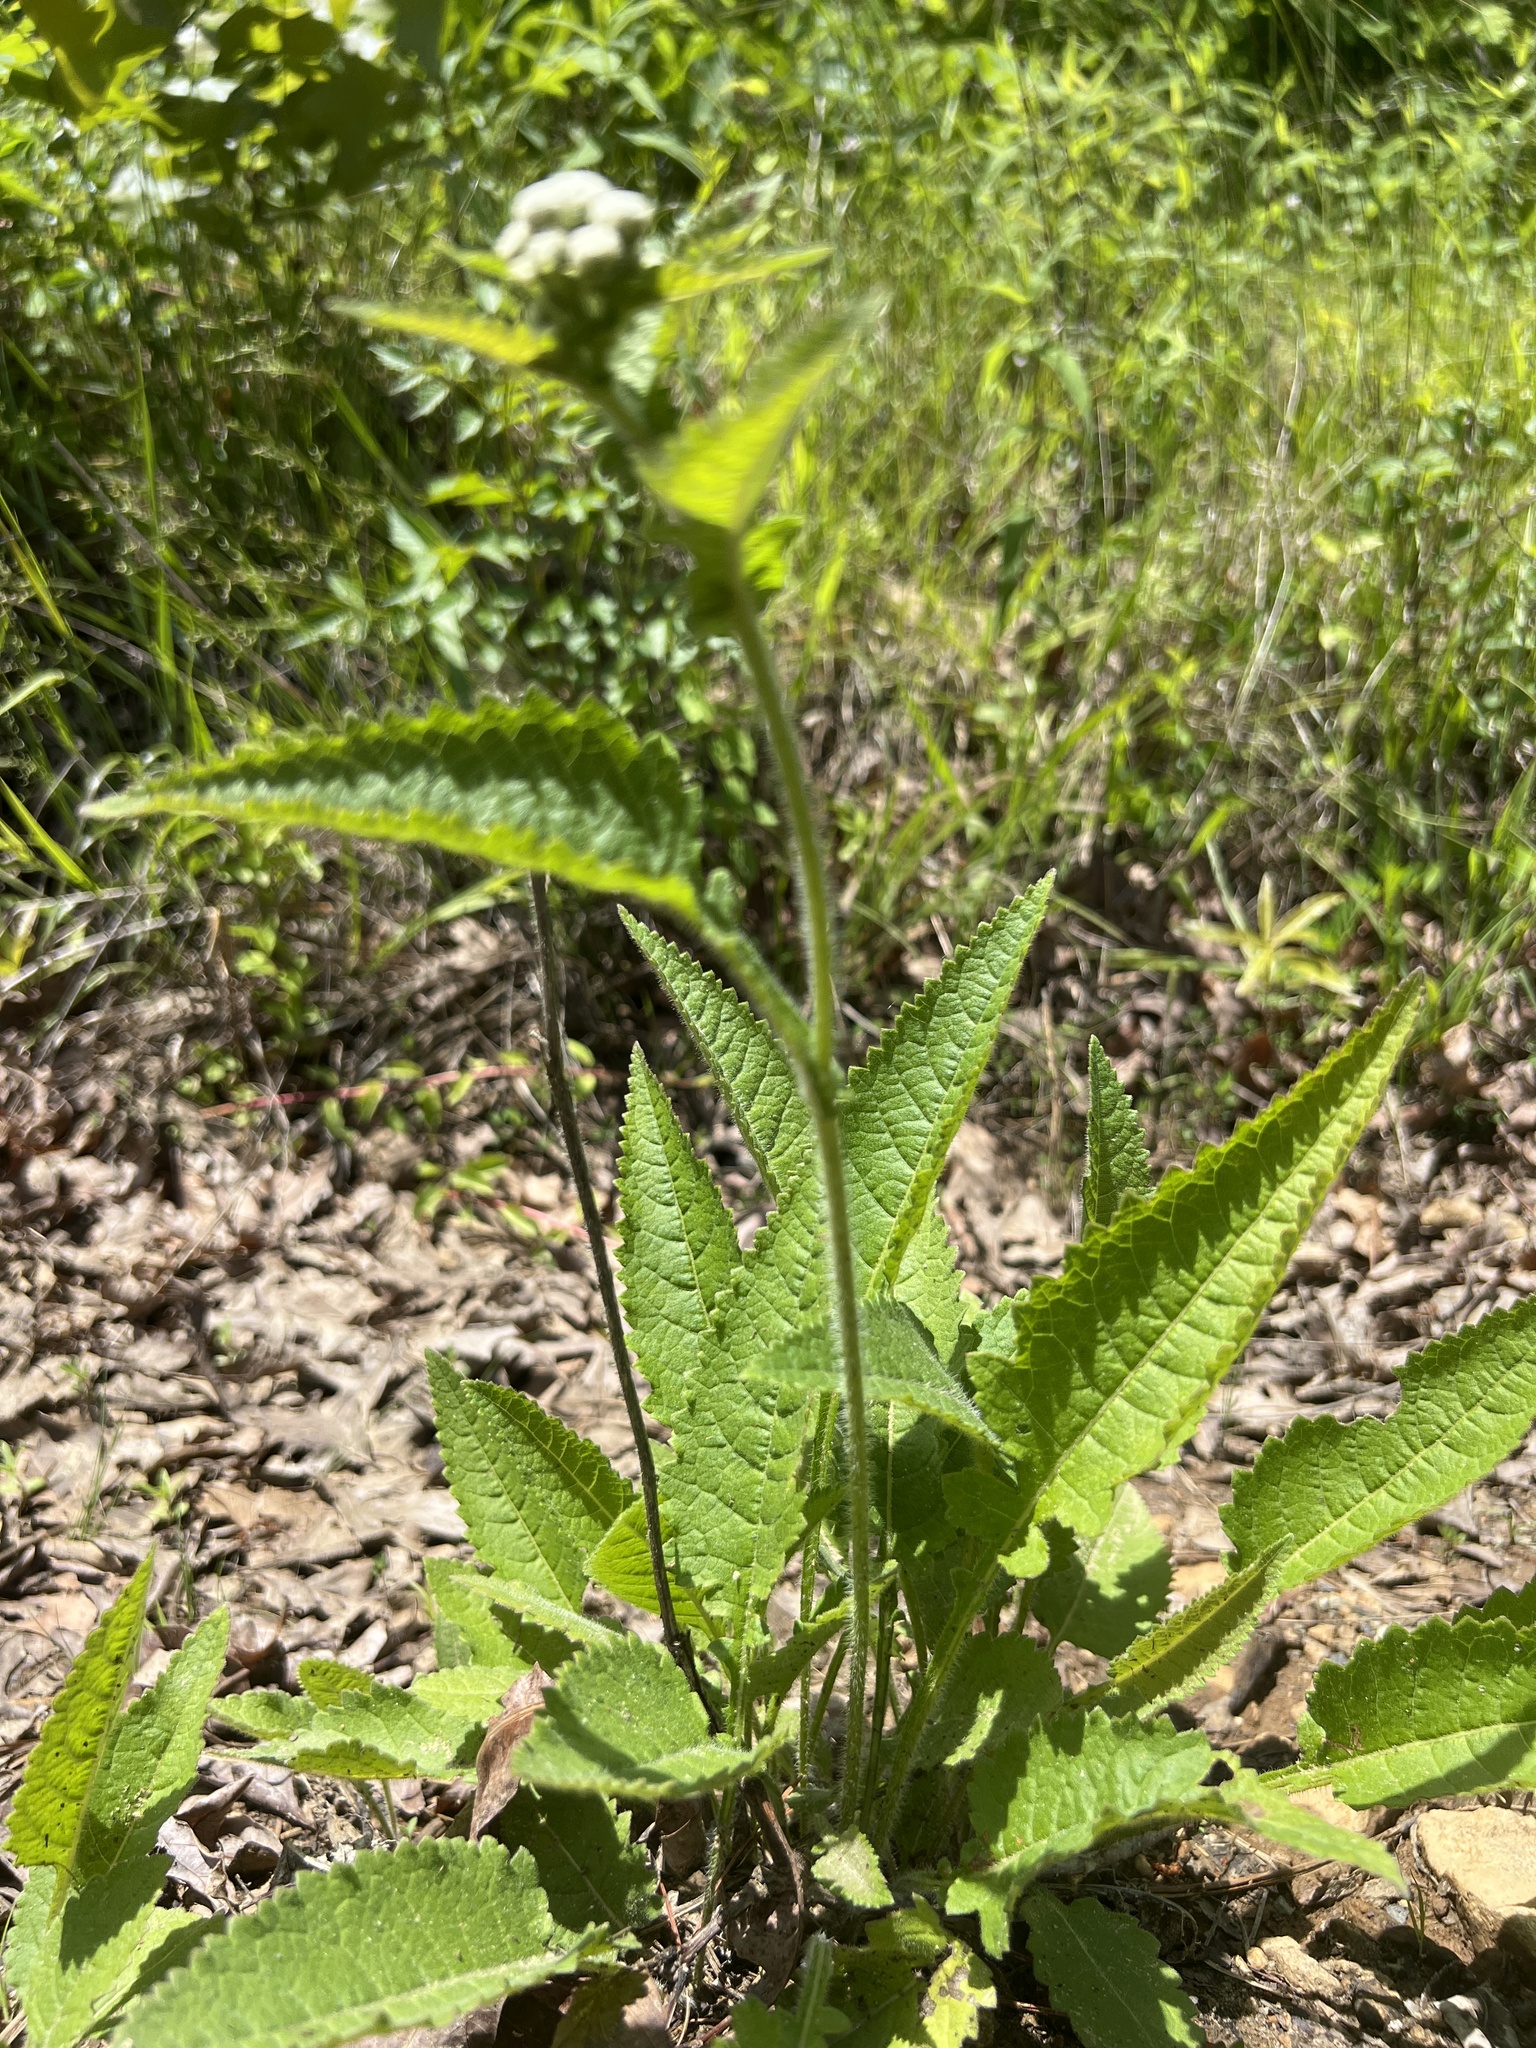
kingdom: Plantae
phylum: Tracheophyta
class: Magnoliopsida
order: Asterales
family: Asteraceae
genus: Parthenium
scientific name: Parthenium auriculatum
